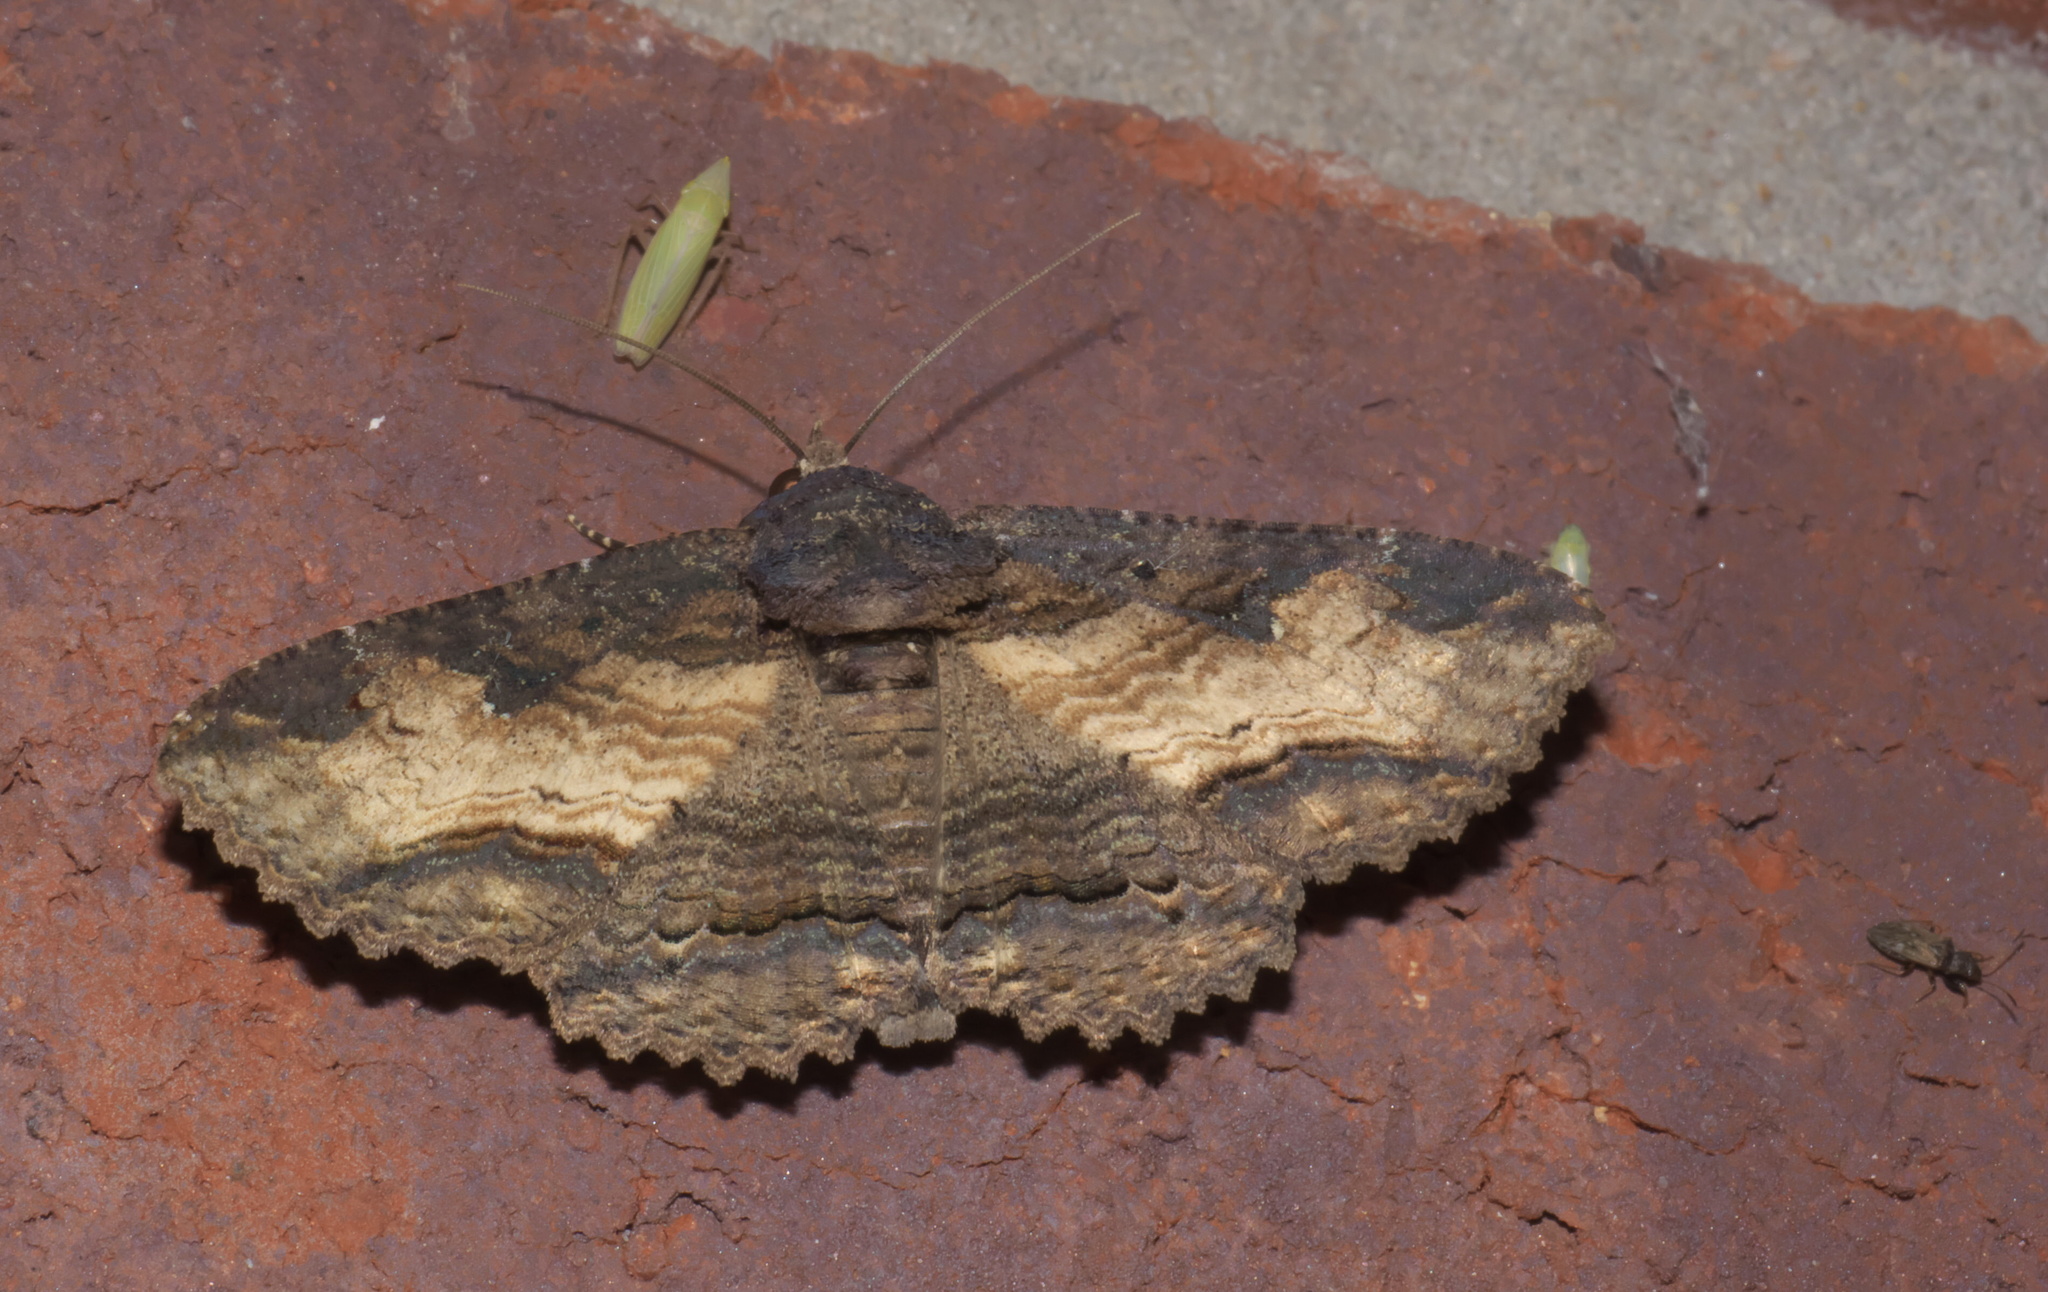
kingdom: Animalia
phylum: Arthropoda
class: Insecta
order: Lepidoptera
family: Erebidae
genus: Zale
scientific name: Zale lunata
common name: Lunate zale moth
